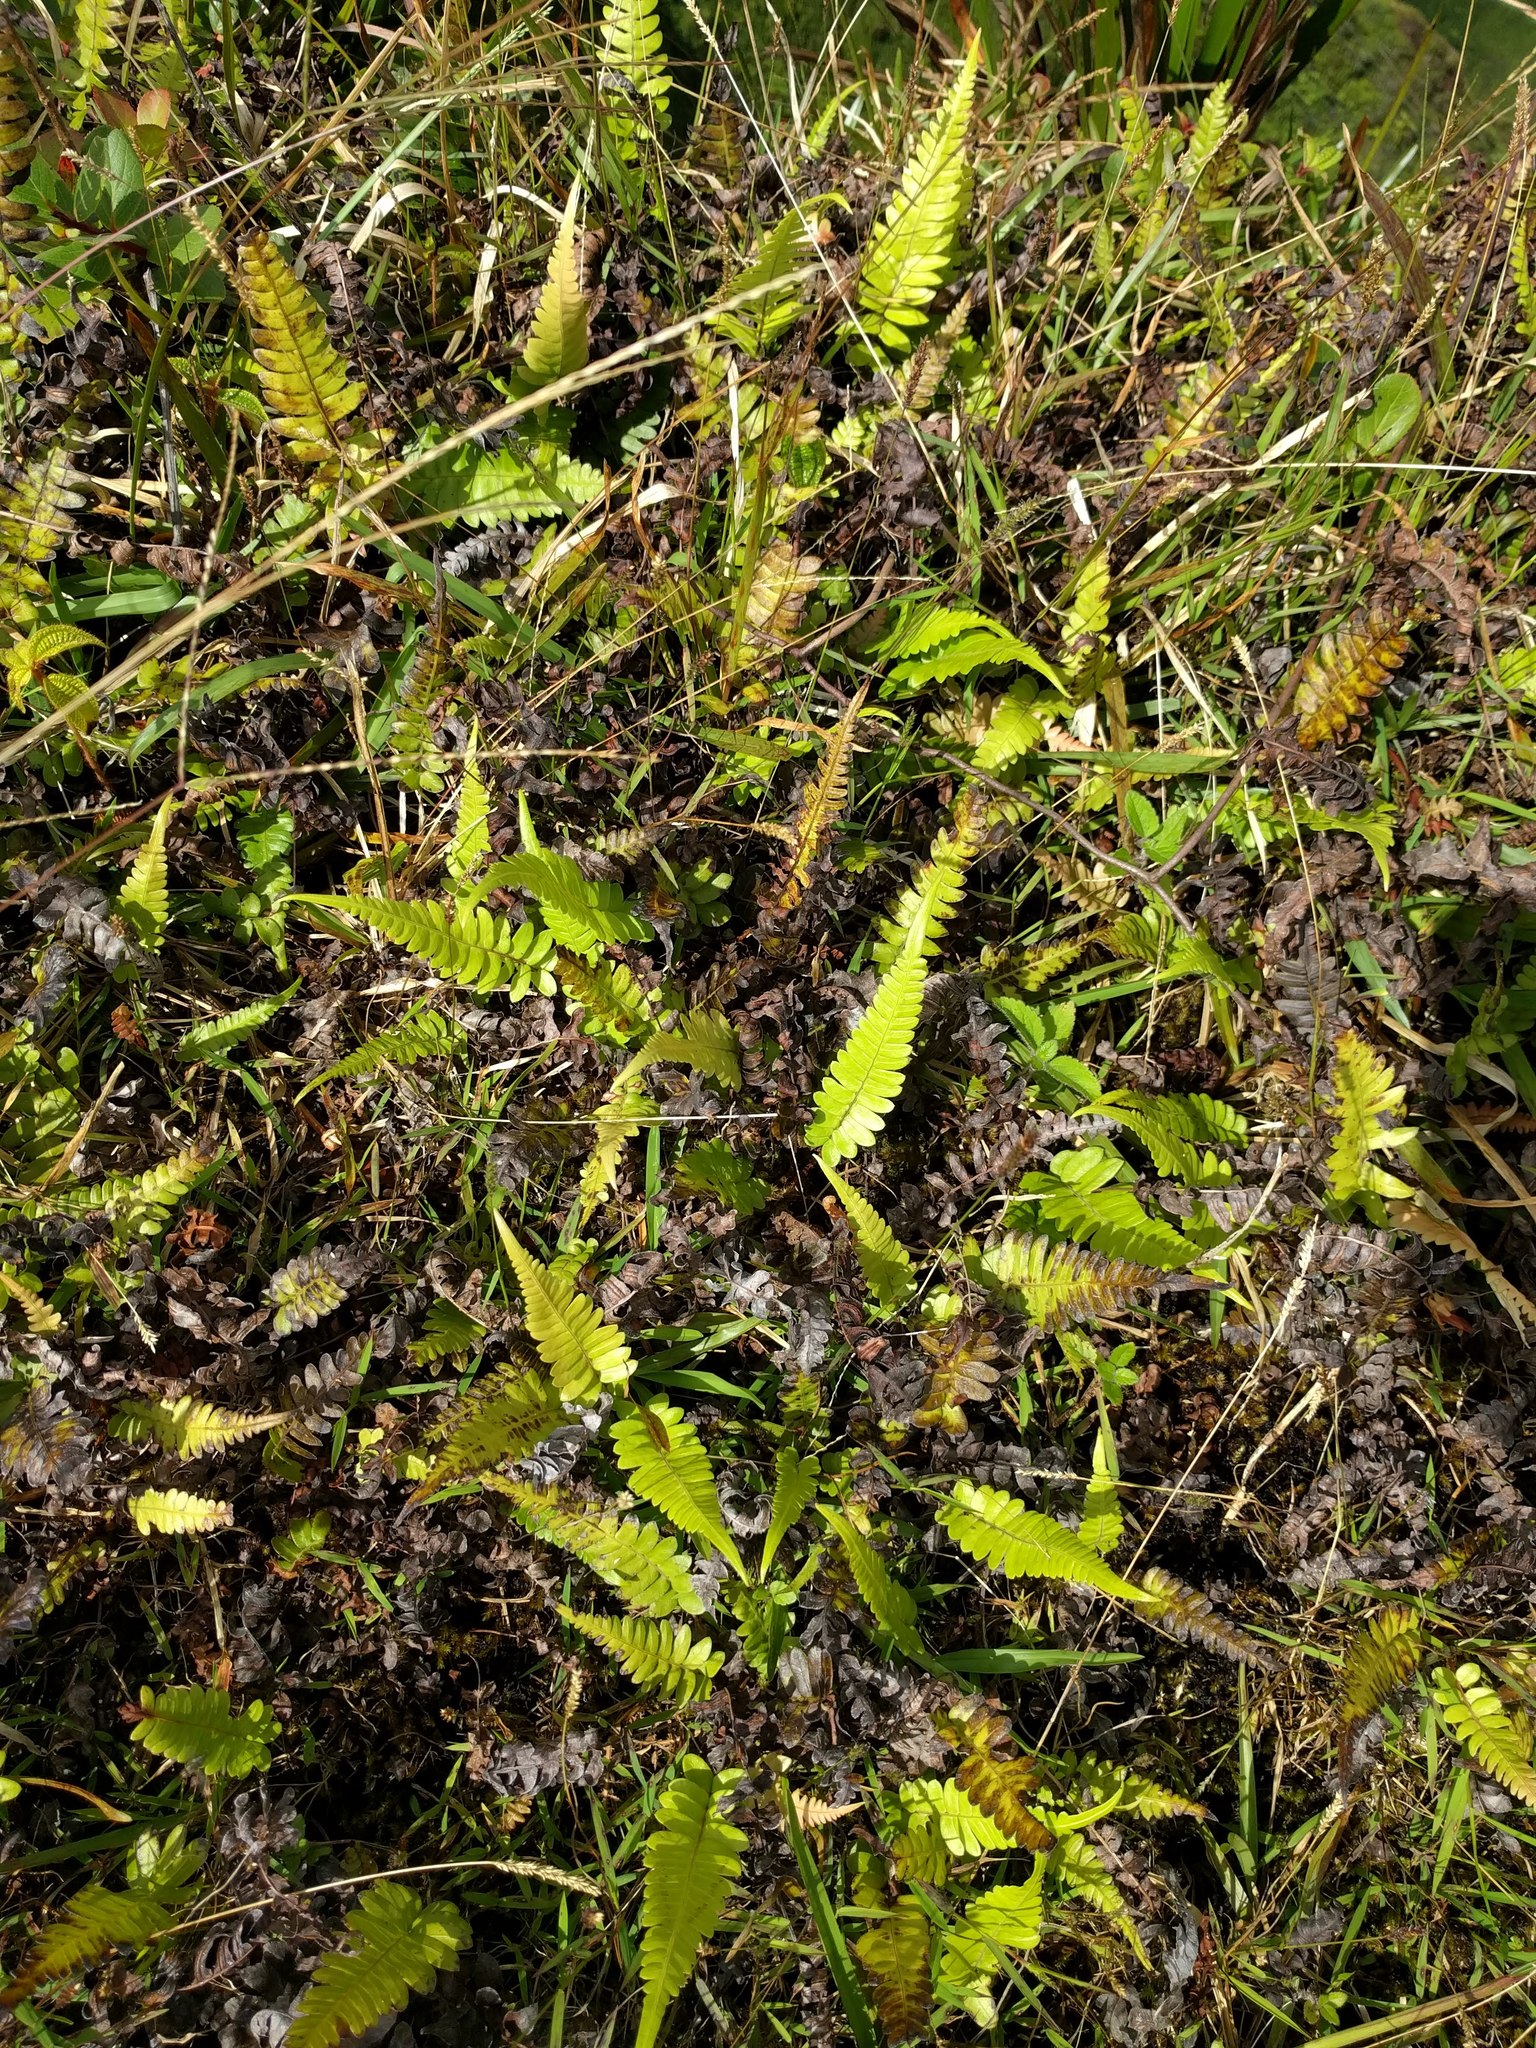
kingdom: Plantae
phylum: Tracheophyta
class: Polypodiopsida
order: Polypodiales
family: Blechnaceae
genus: Blechnum
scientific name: Blechnum appendiculatum
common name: Palm fern
